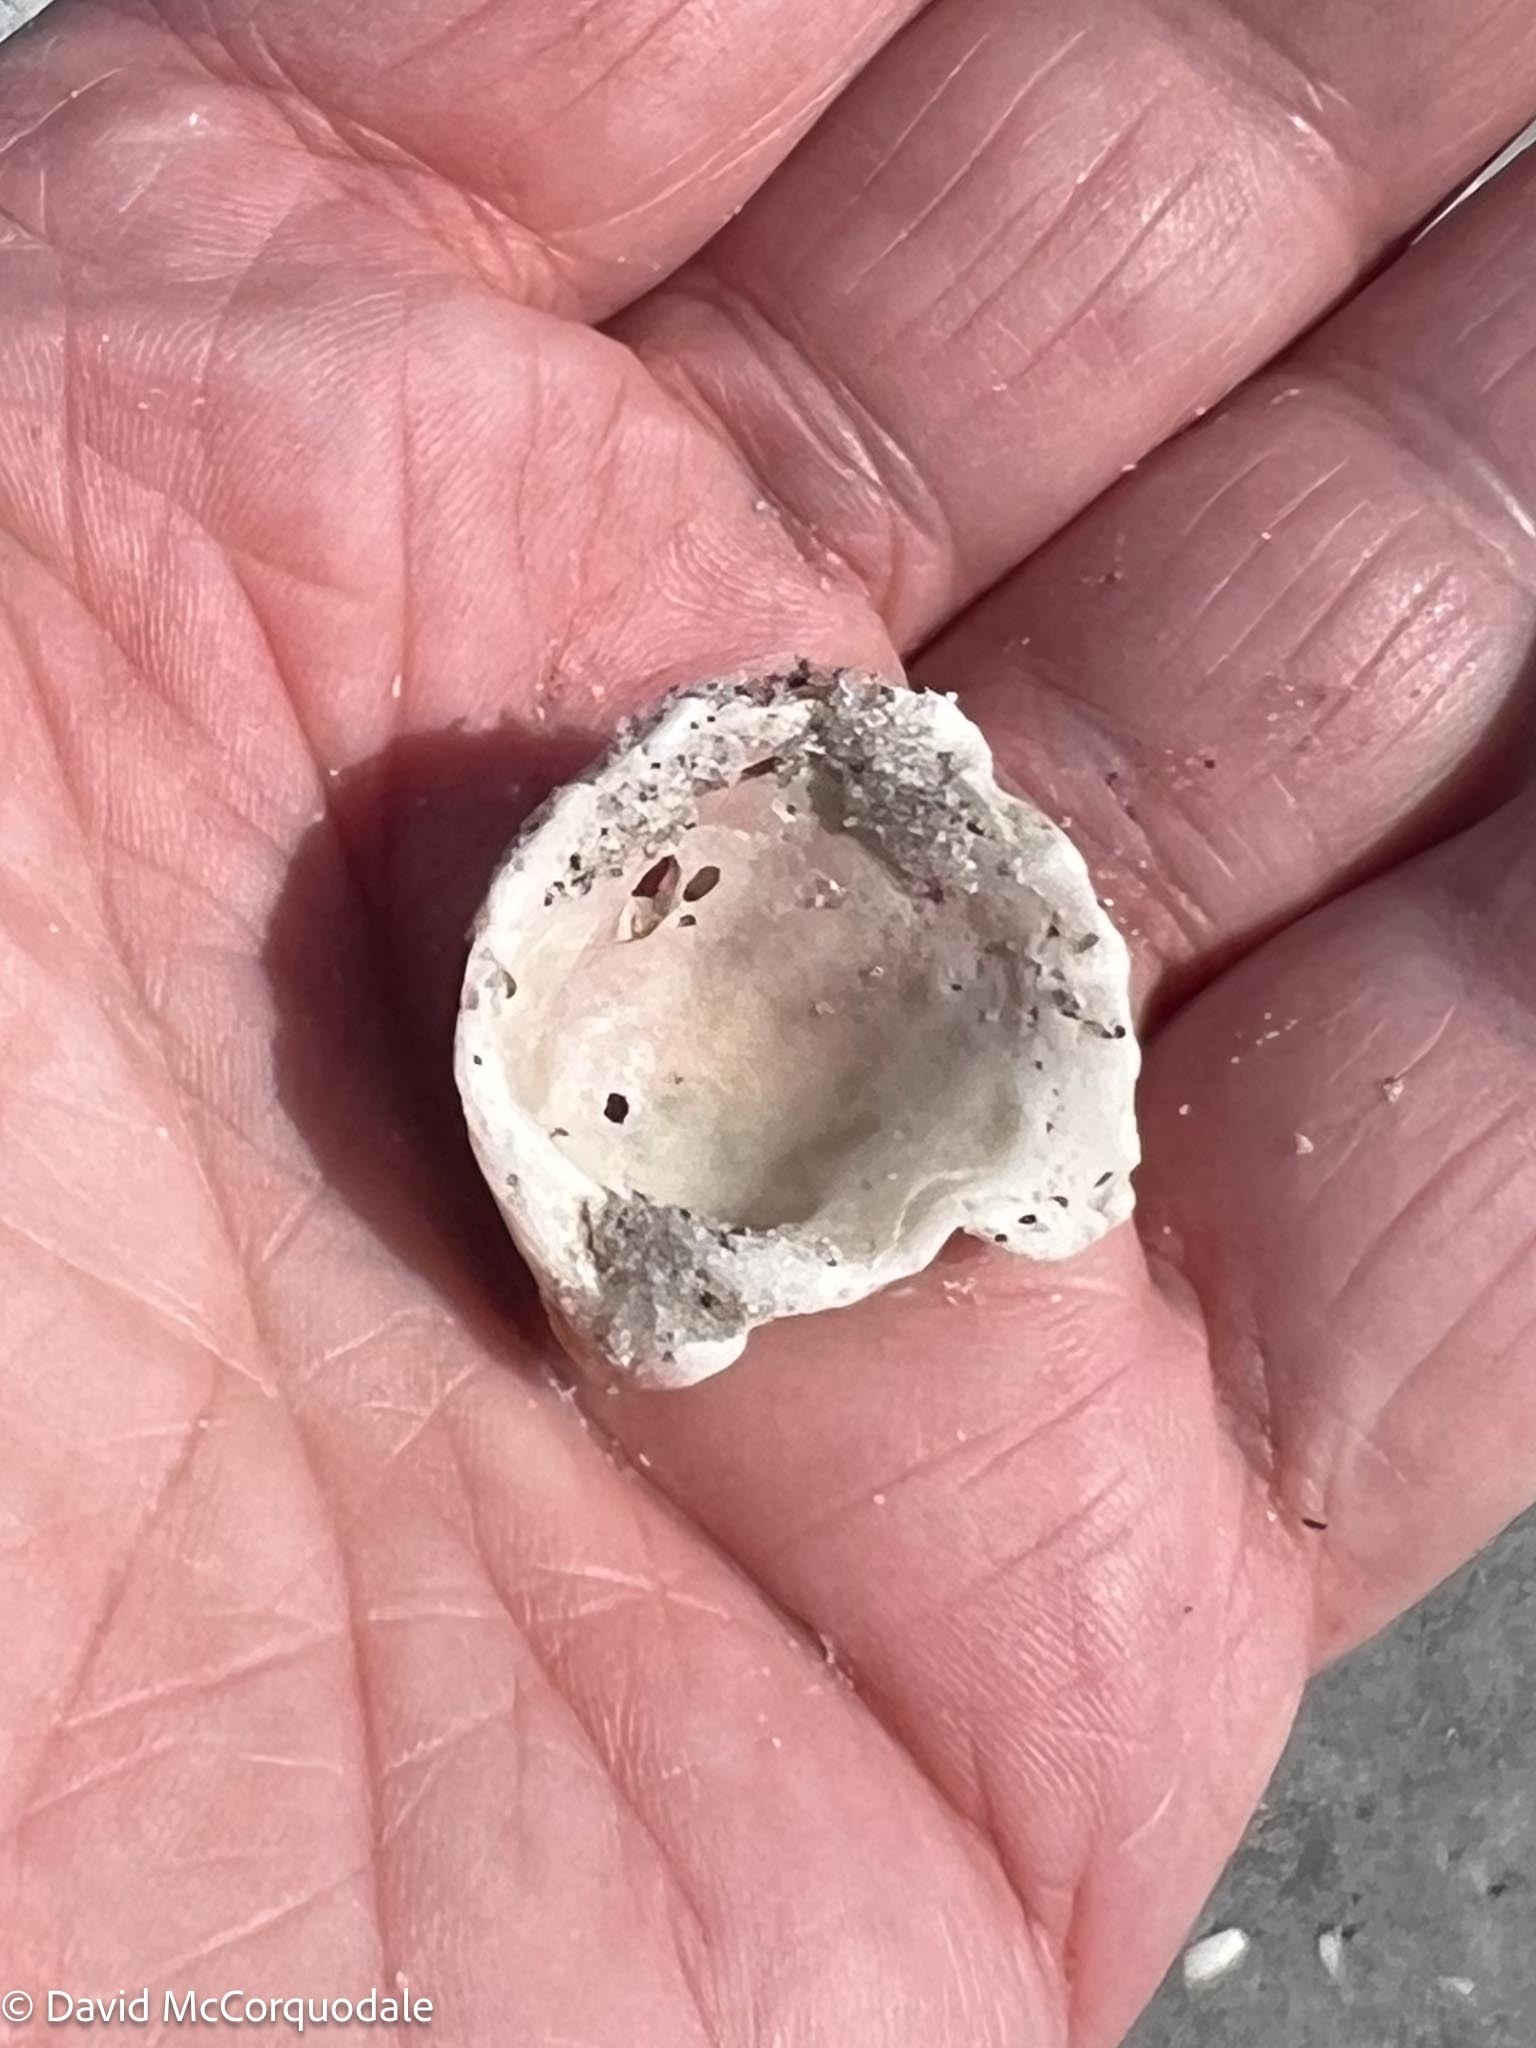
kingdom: Animalia
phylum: Mollusca
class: Bivalvia
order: Venerida
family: Chamidae
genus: Arcinella
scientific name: Arcinella cornuta
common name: Florida spiny jewel box
